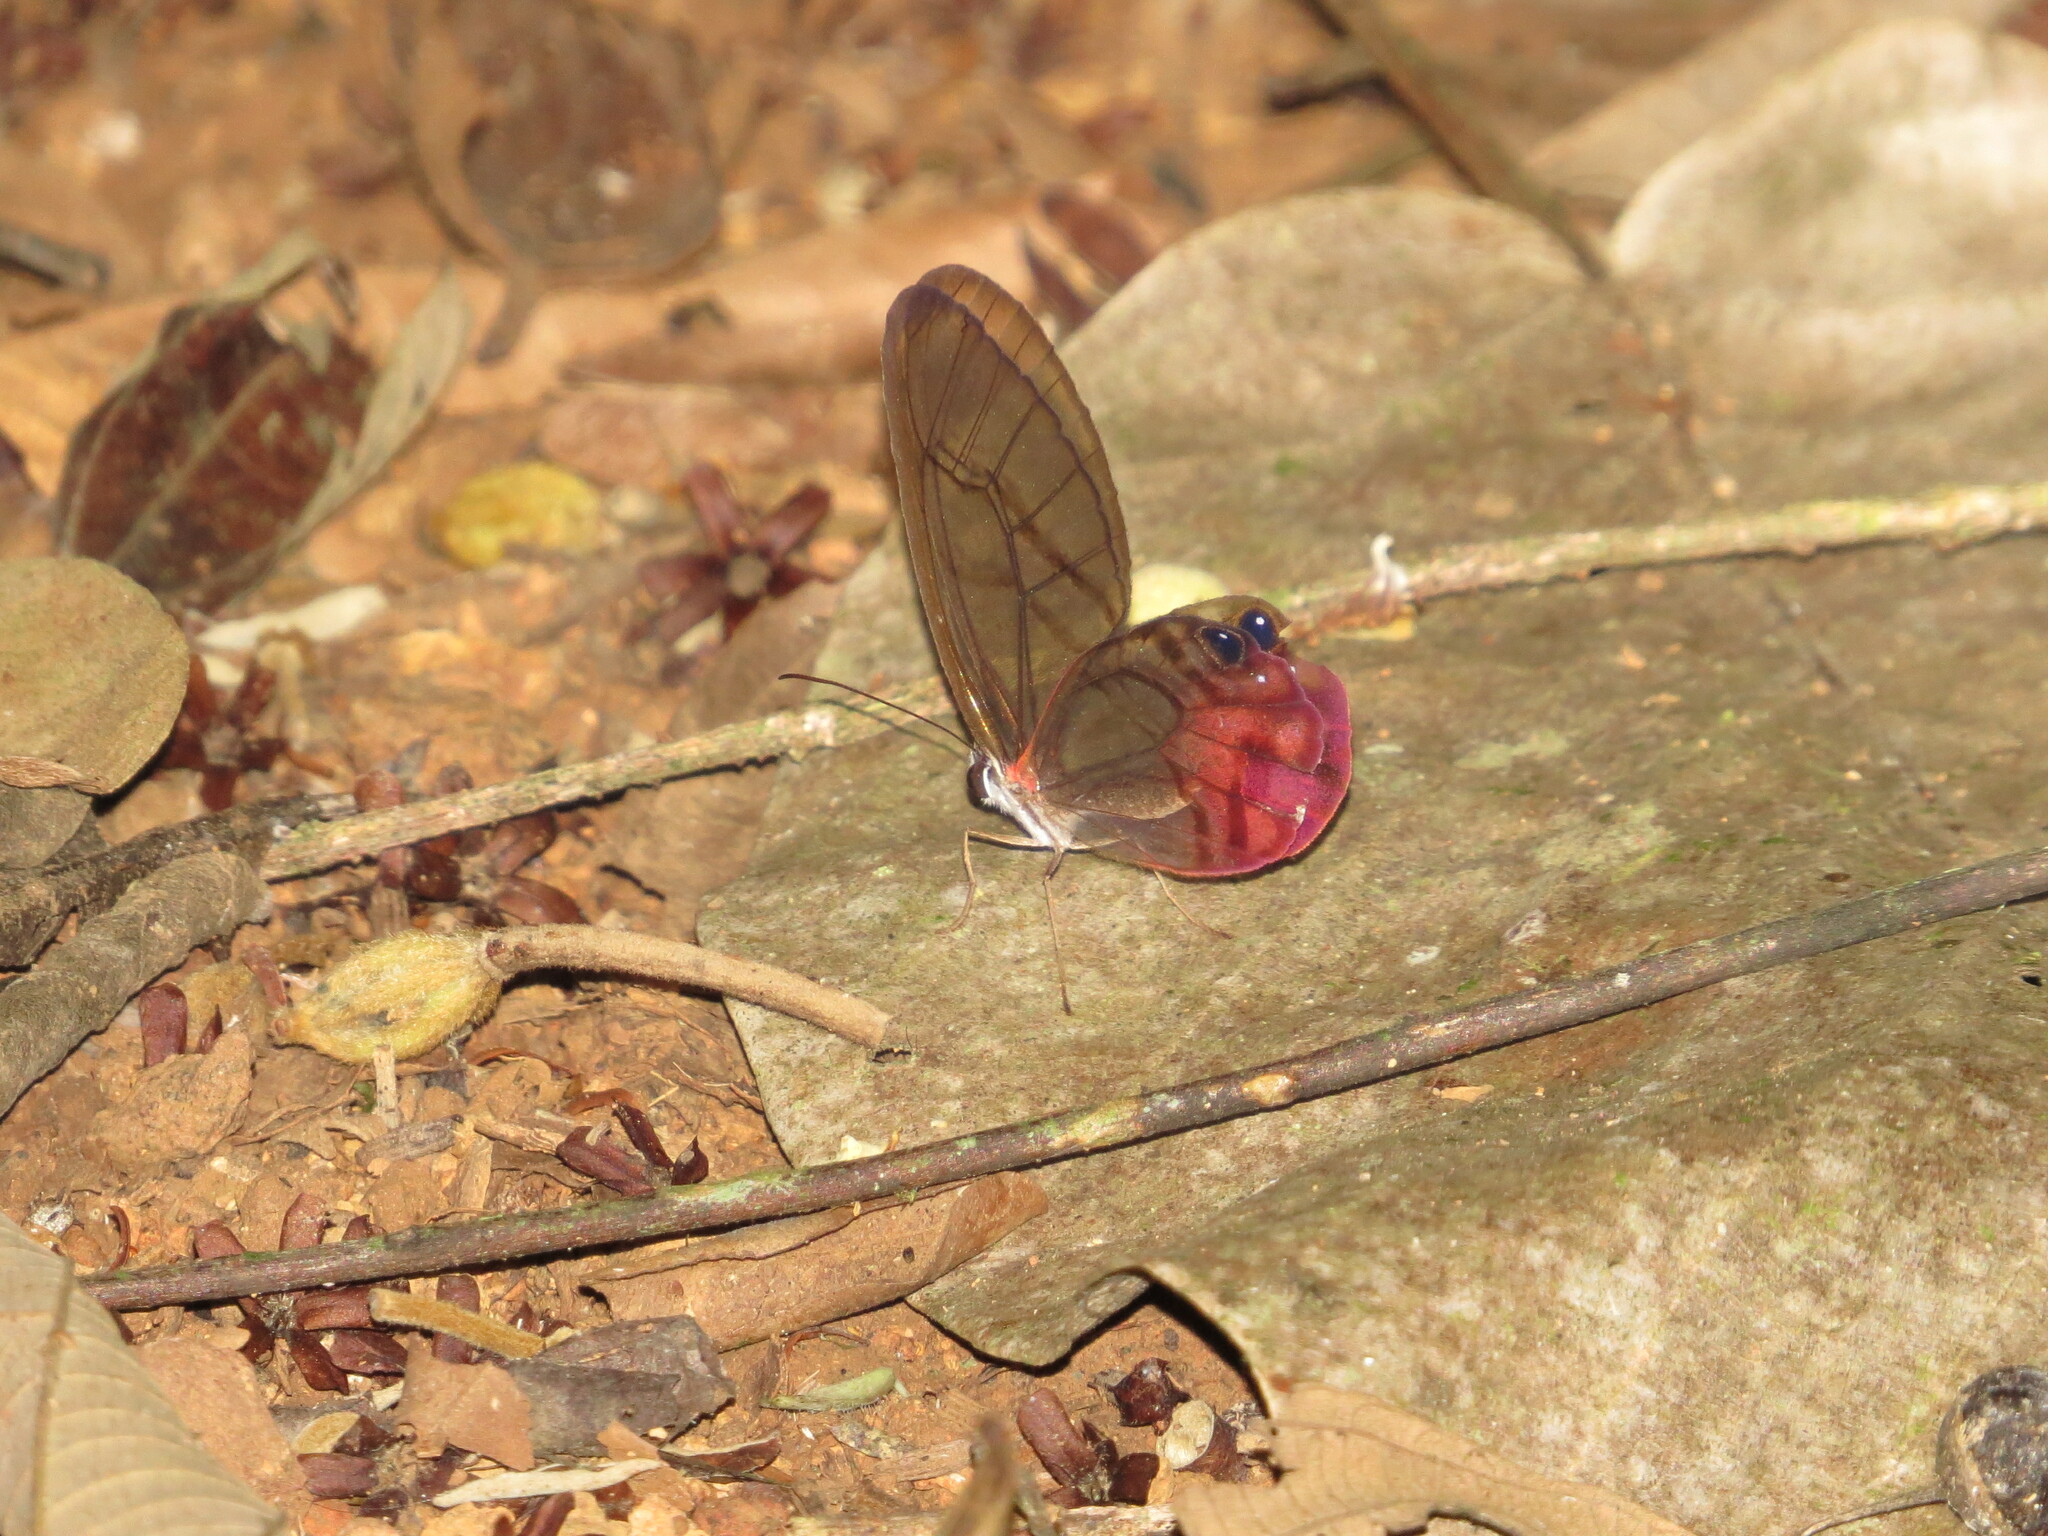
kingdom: Animalia
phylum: Arthropoda
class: Insecta
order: Lepidoptera
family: Nymphalidae
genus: Cithaerias
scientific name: Cithaerias pireta
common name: Rusted clearwing-satyr
